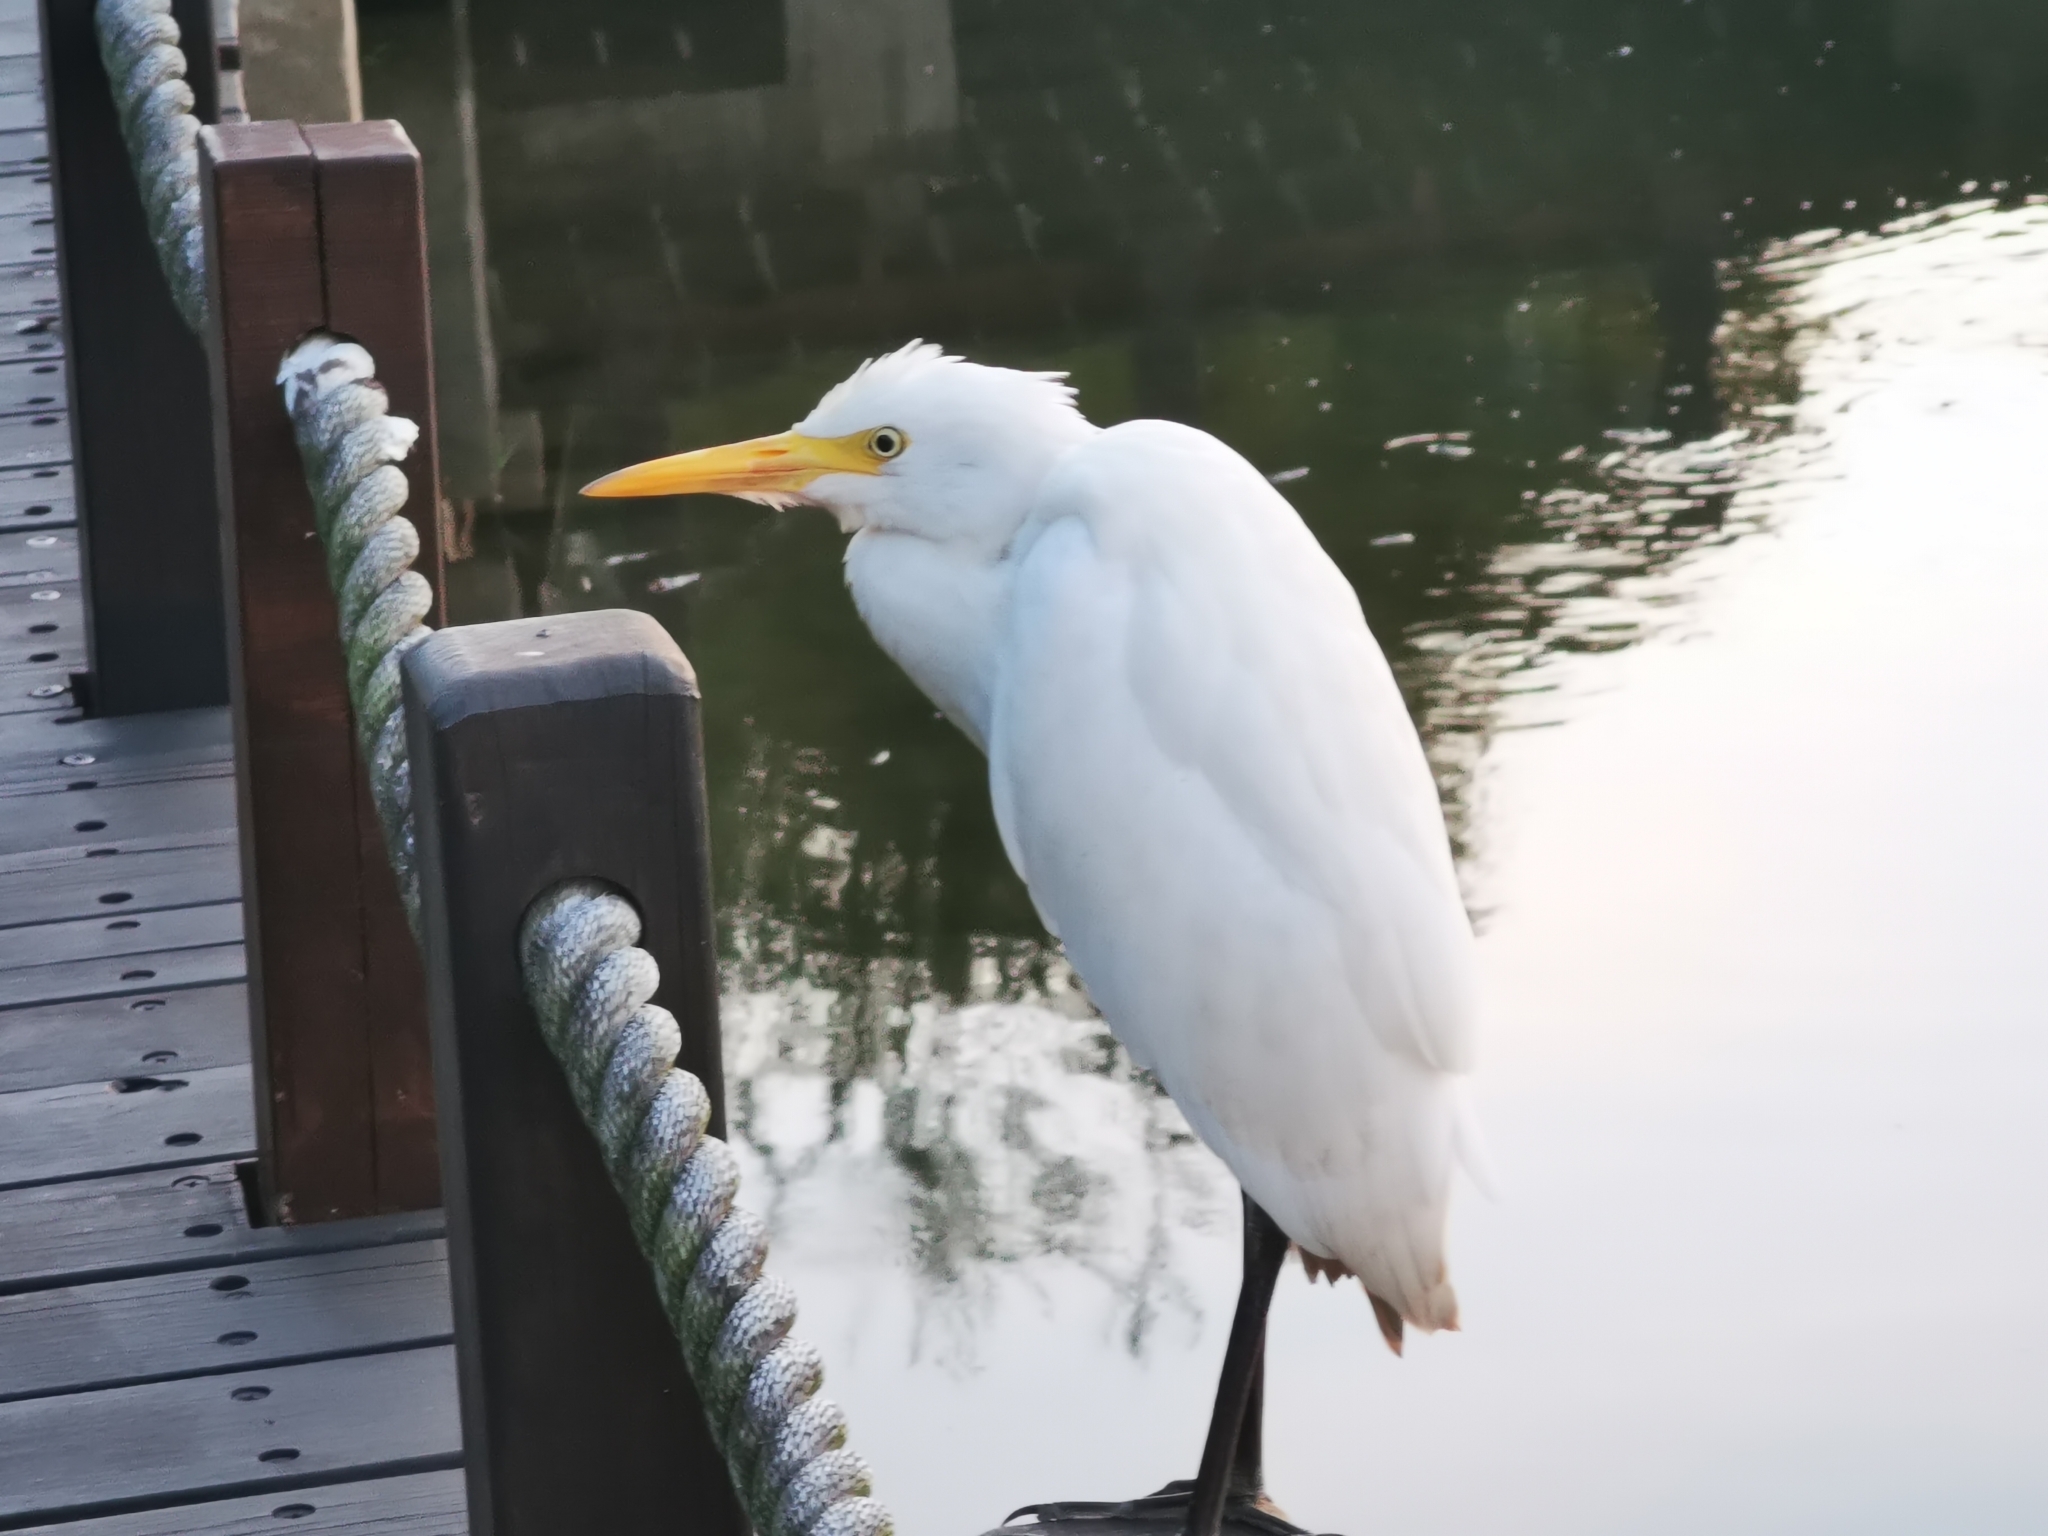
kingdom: Animalia
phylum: Chordata
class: Aves
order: Pelecaniformes
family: Ardeidae
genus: Bubulcus
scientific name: Bubulcus coromandus
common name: Eastern cattle egret
